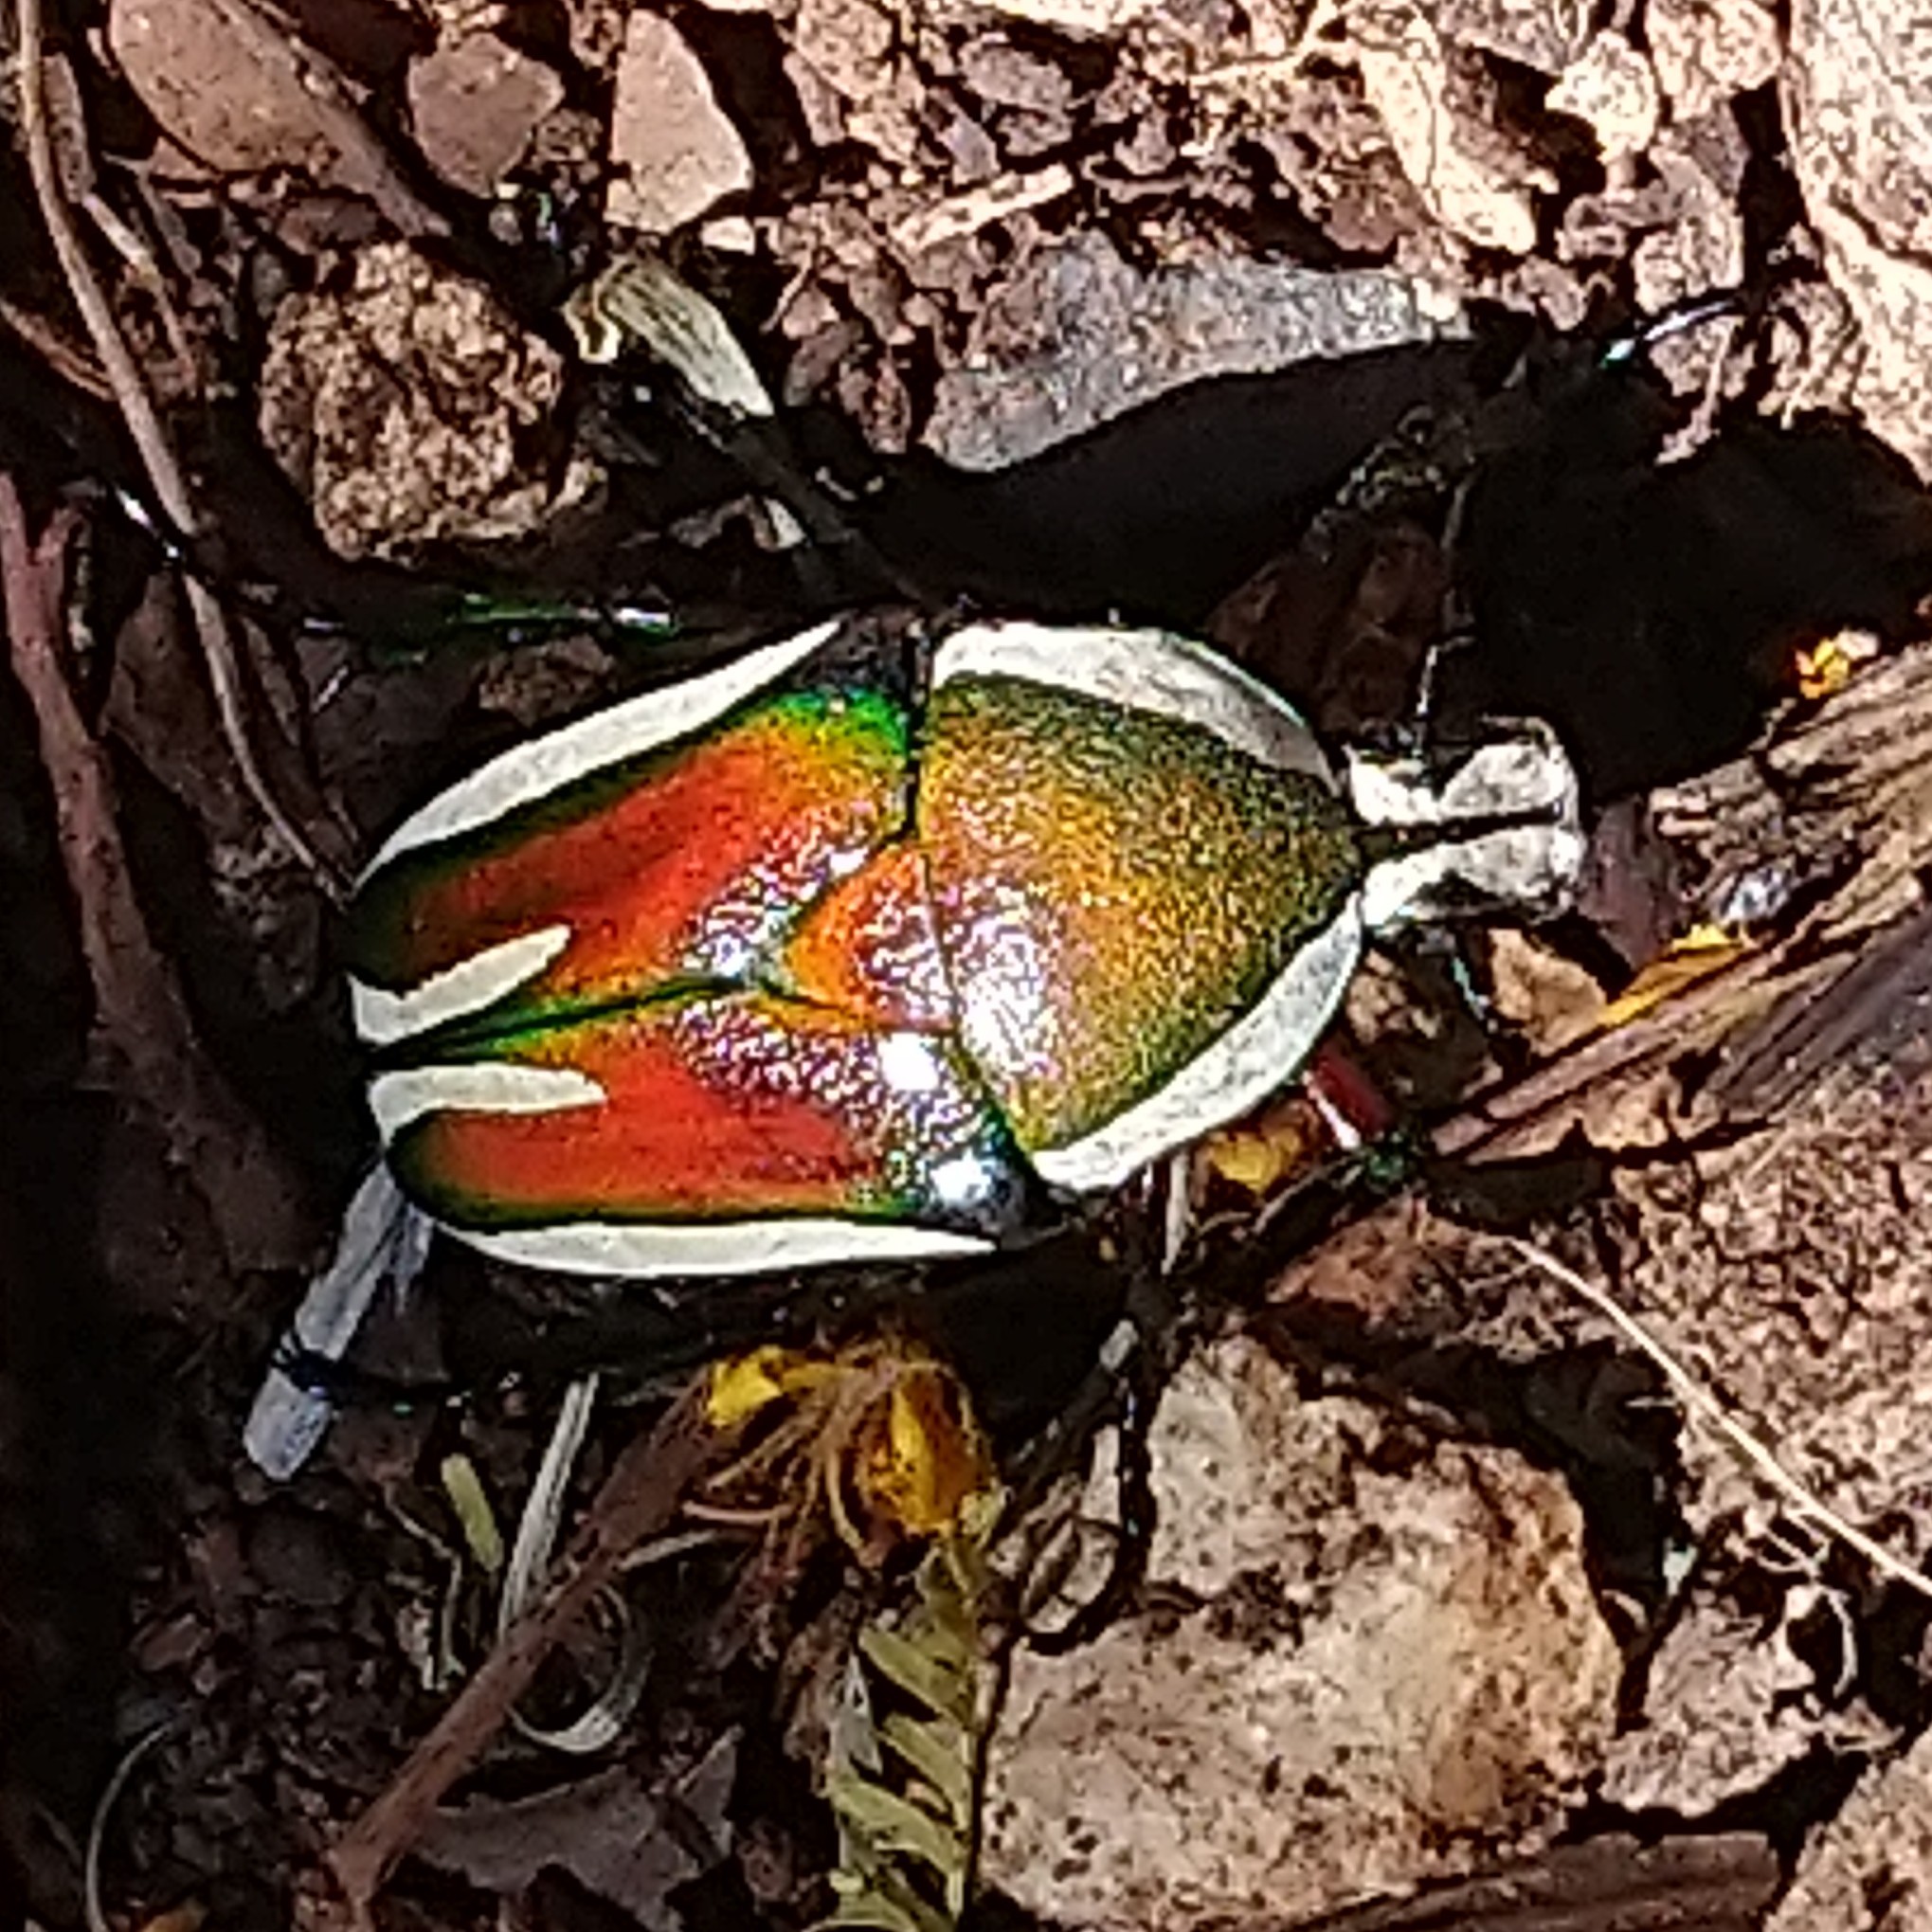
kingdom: Animalia
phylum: Arthropoda
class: Insecta
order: Coleoptera
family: Scarabaeidae
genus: Dicronorhina
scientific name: Dicronorhina derbyana
